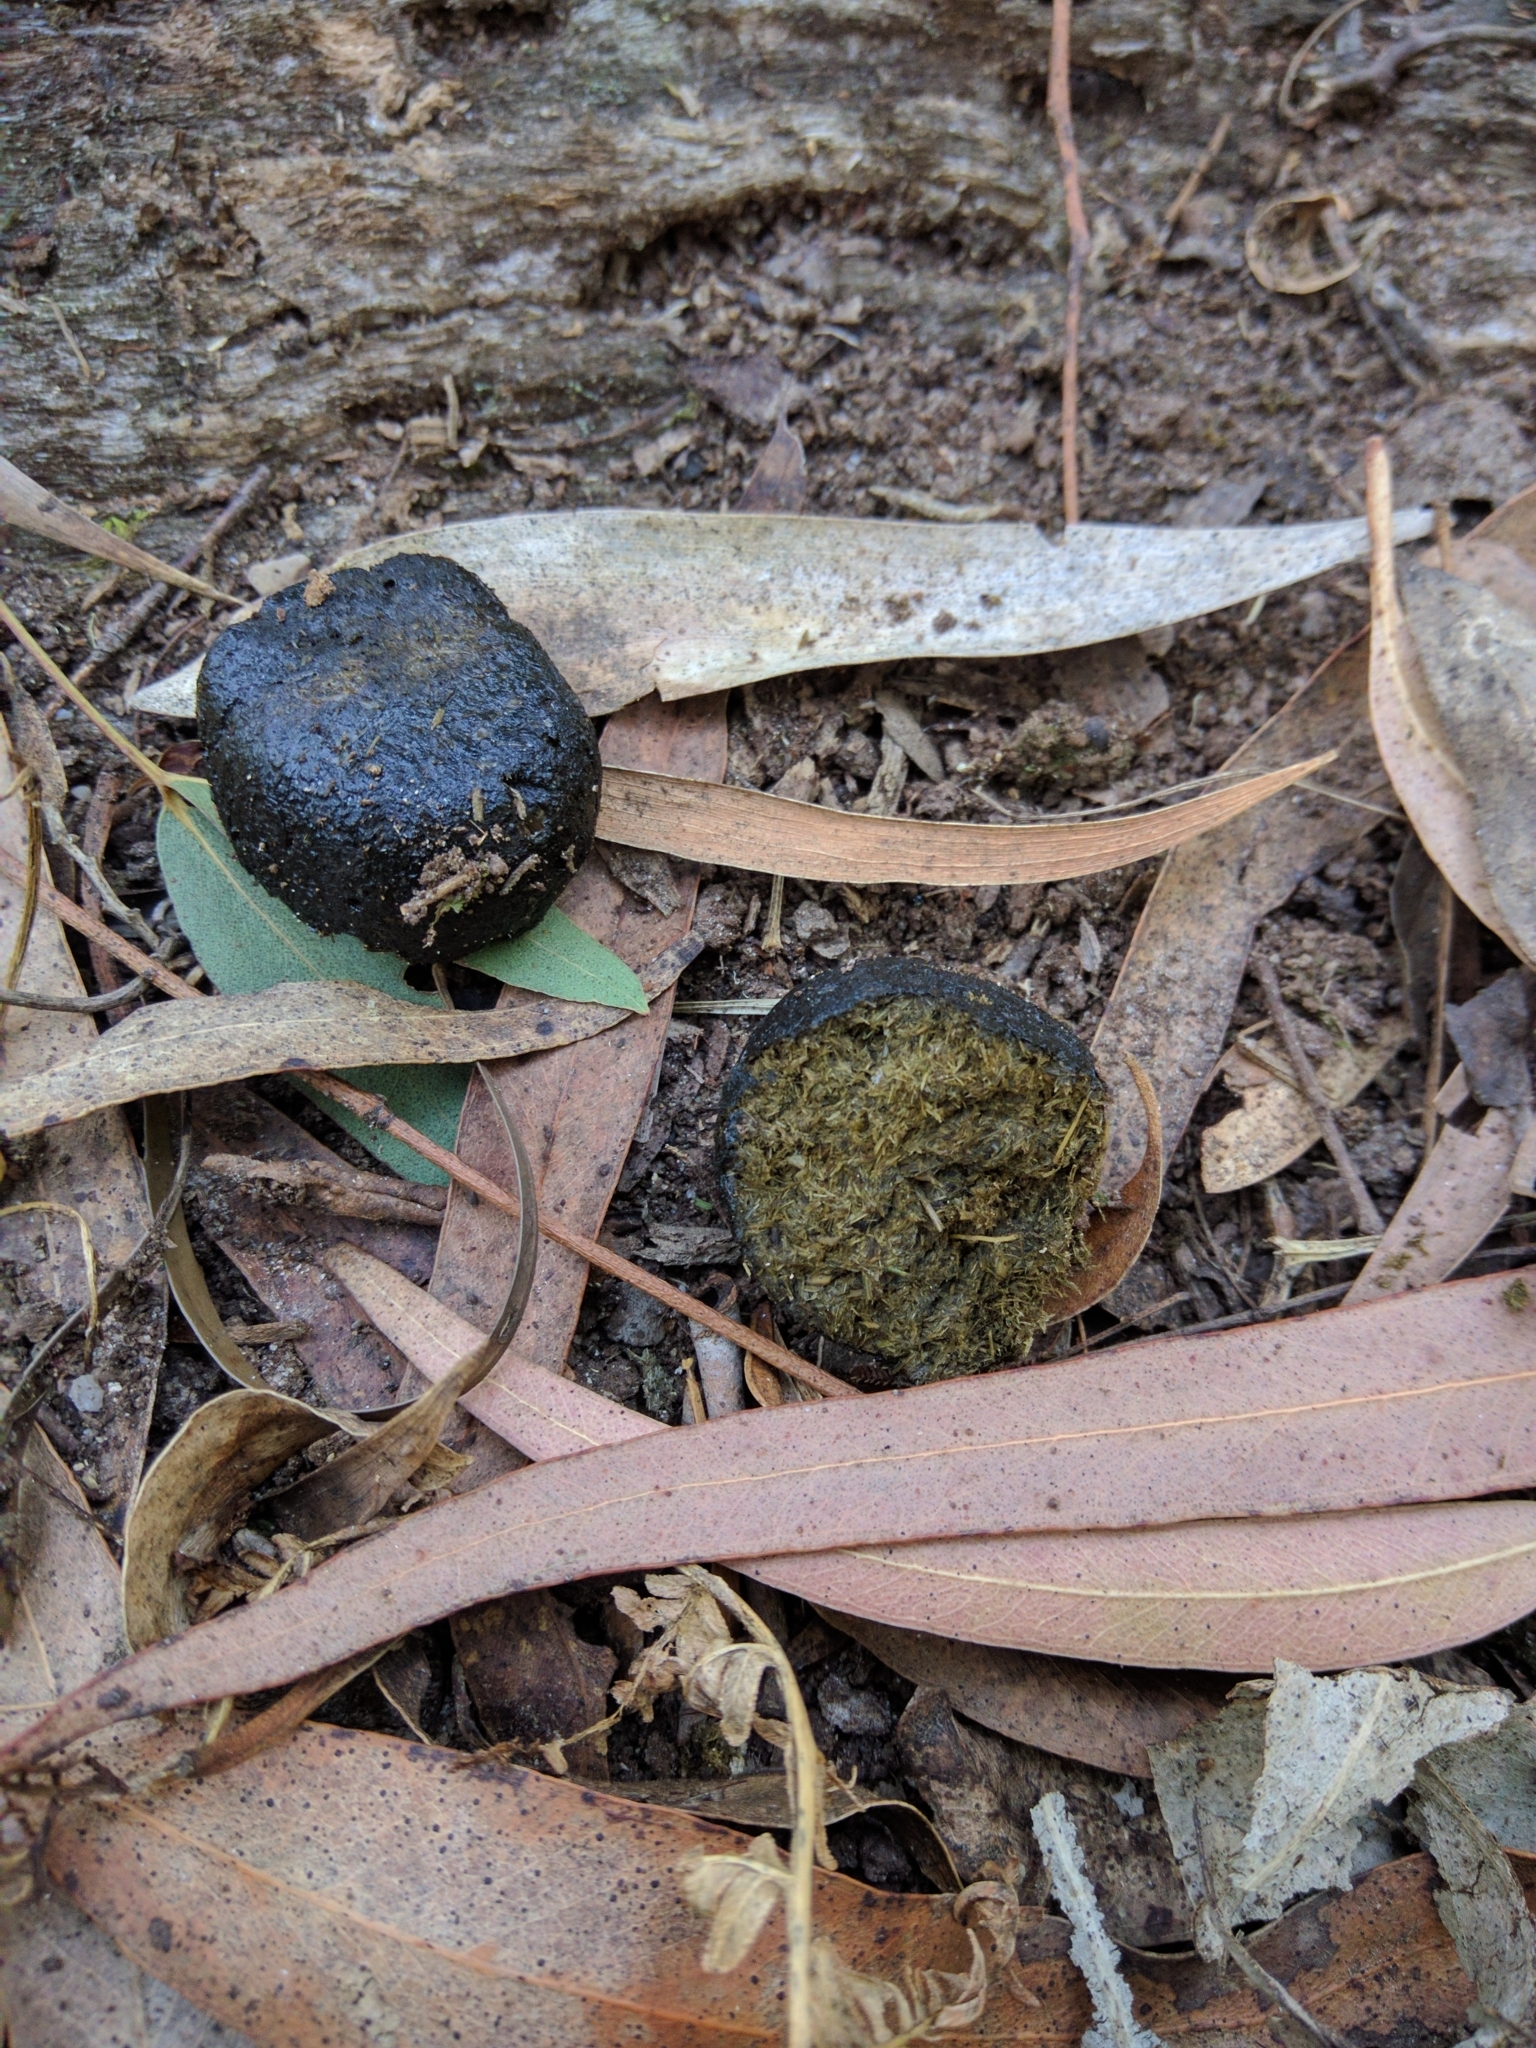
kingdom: Animalia
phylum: Chordata
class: Mammalia
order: Diprotodontia
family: Vombatidae
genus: Vombatus
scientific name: Vombatus ursinus
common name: Common wombat
